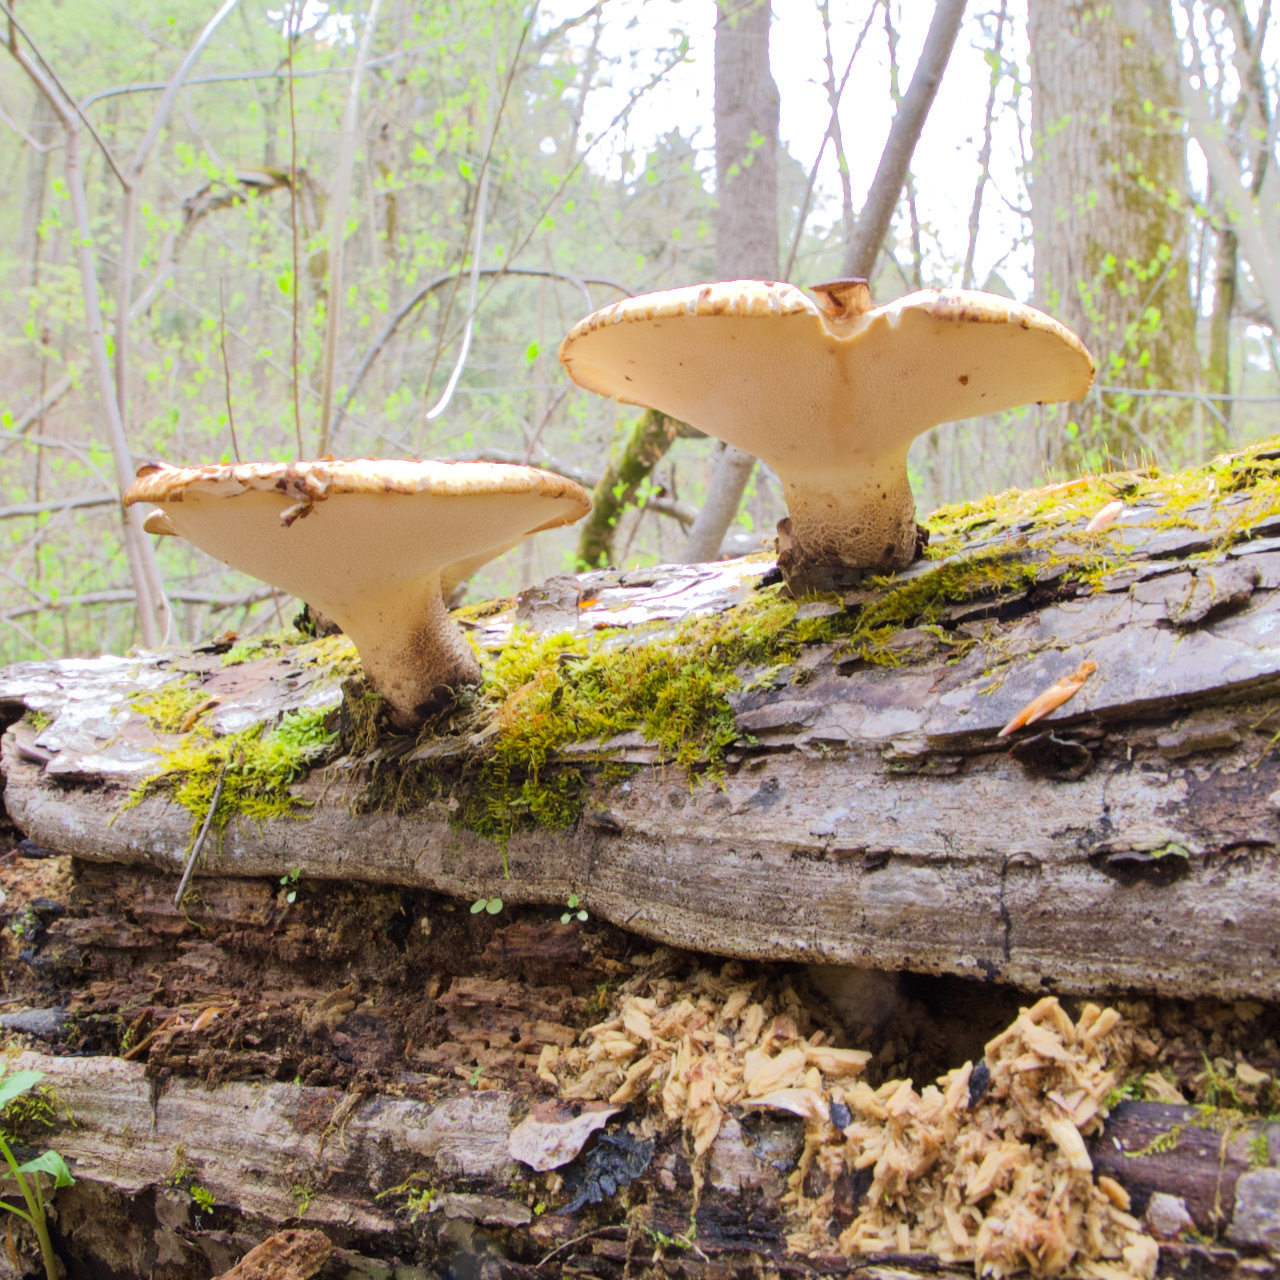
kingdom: Fungi
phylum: Basidiomycota
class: Agaricomycetes
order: Polyporales
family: Polyporaceae
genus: Cerioporus
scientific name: Cerioporus squamosus
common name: Dryad's saddle
